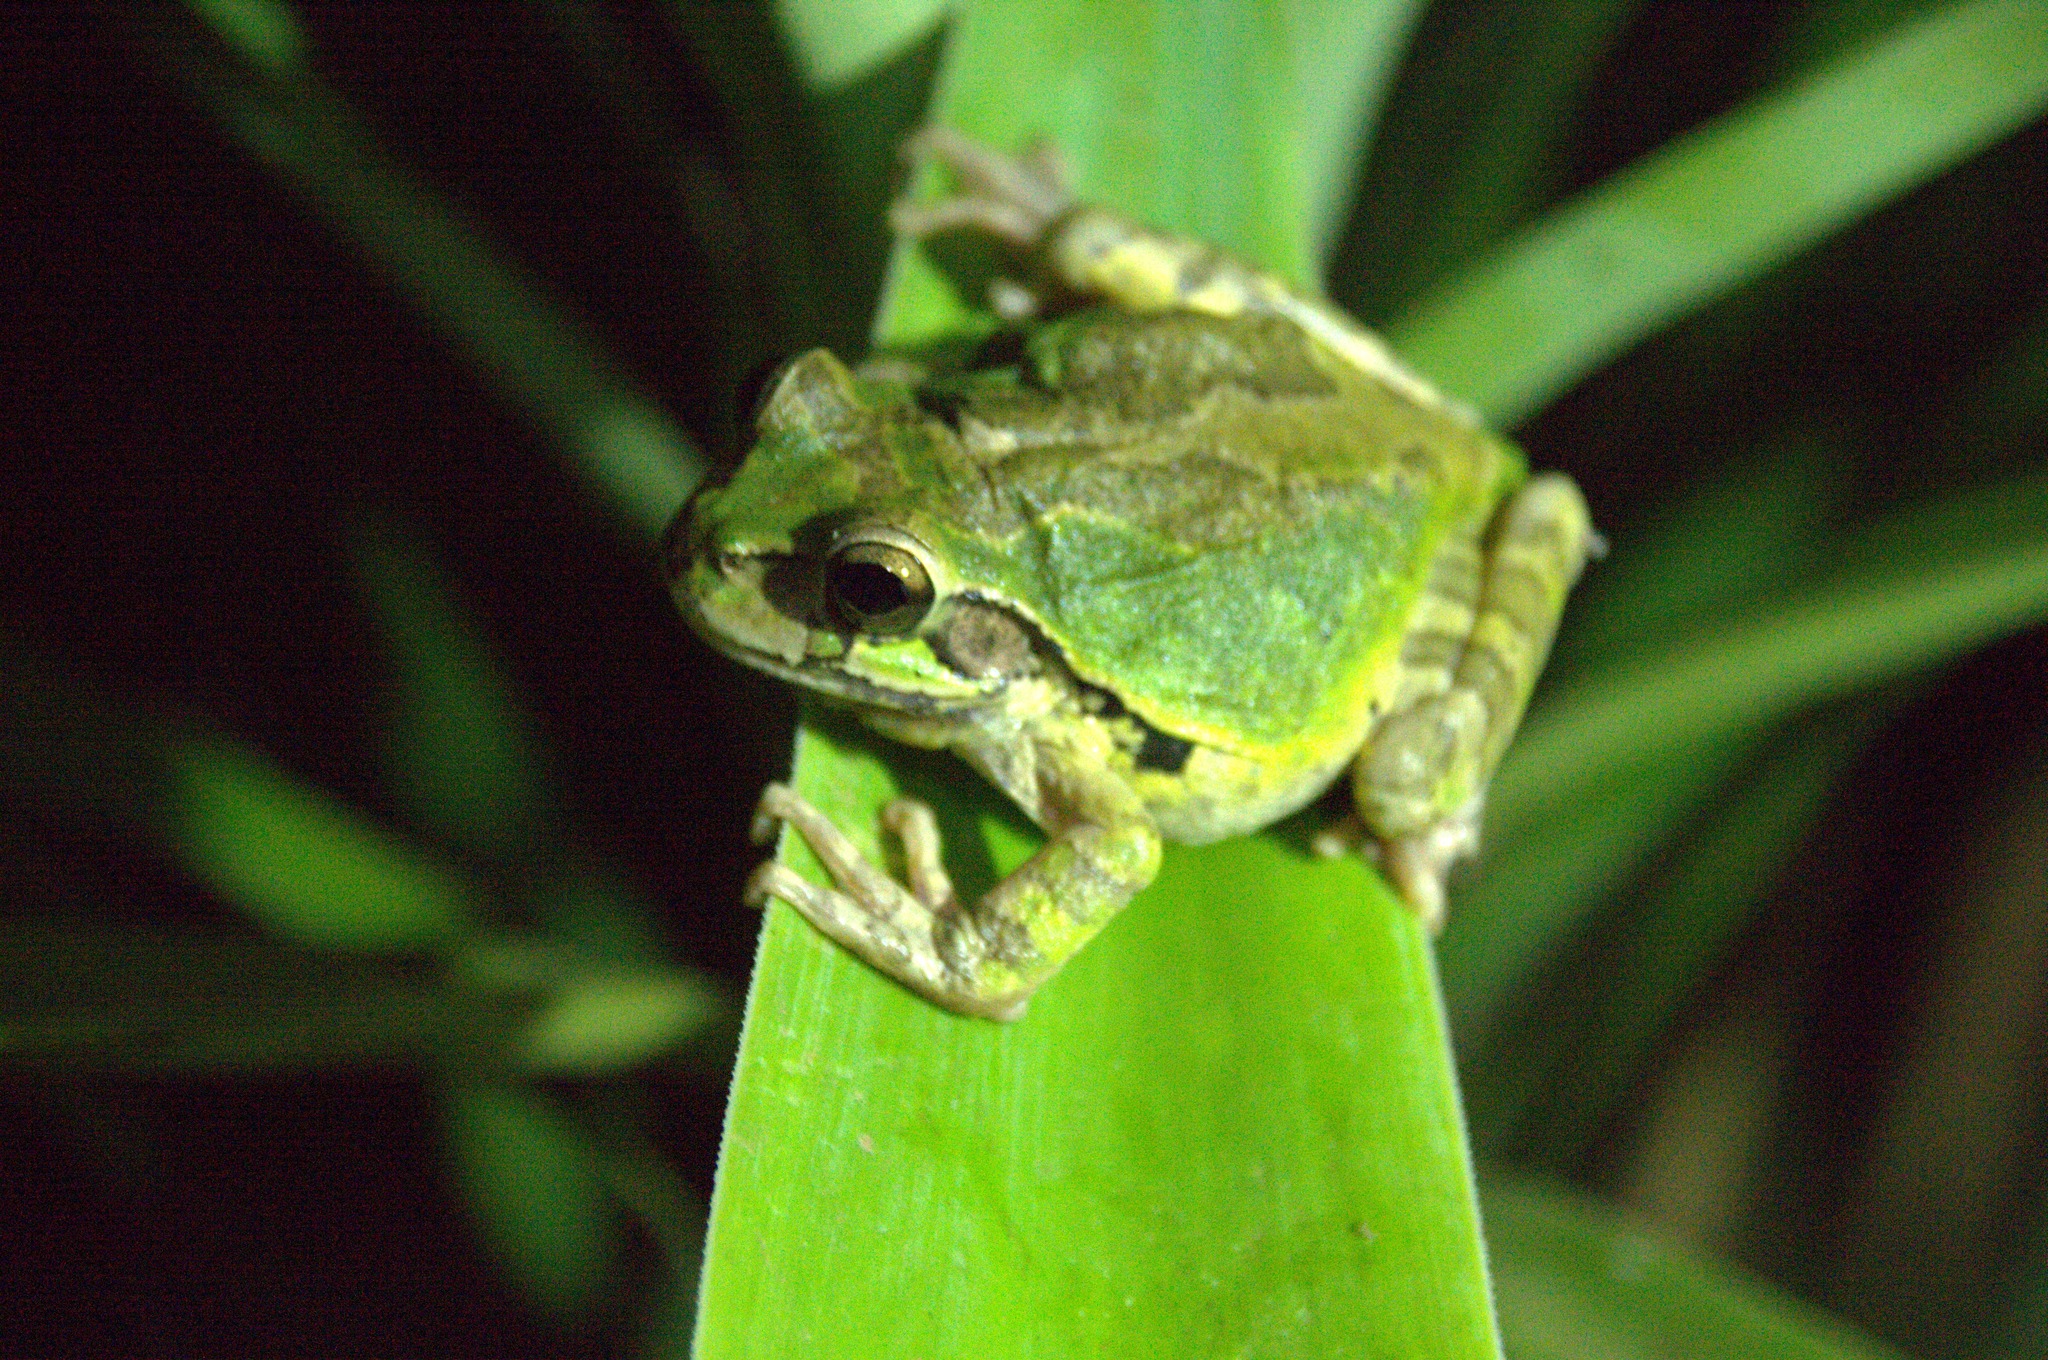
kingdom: Animalia
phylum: Chordata
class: Amphibia
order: Anura
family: Hylidae
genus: Smilisca
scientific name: Smilisca baudinii
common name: Mexican smilisca
